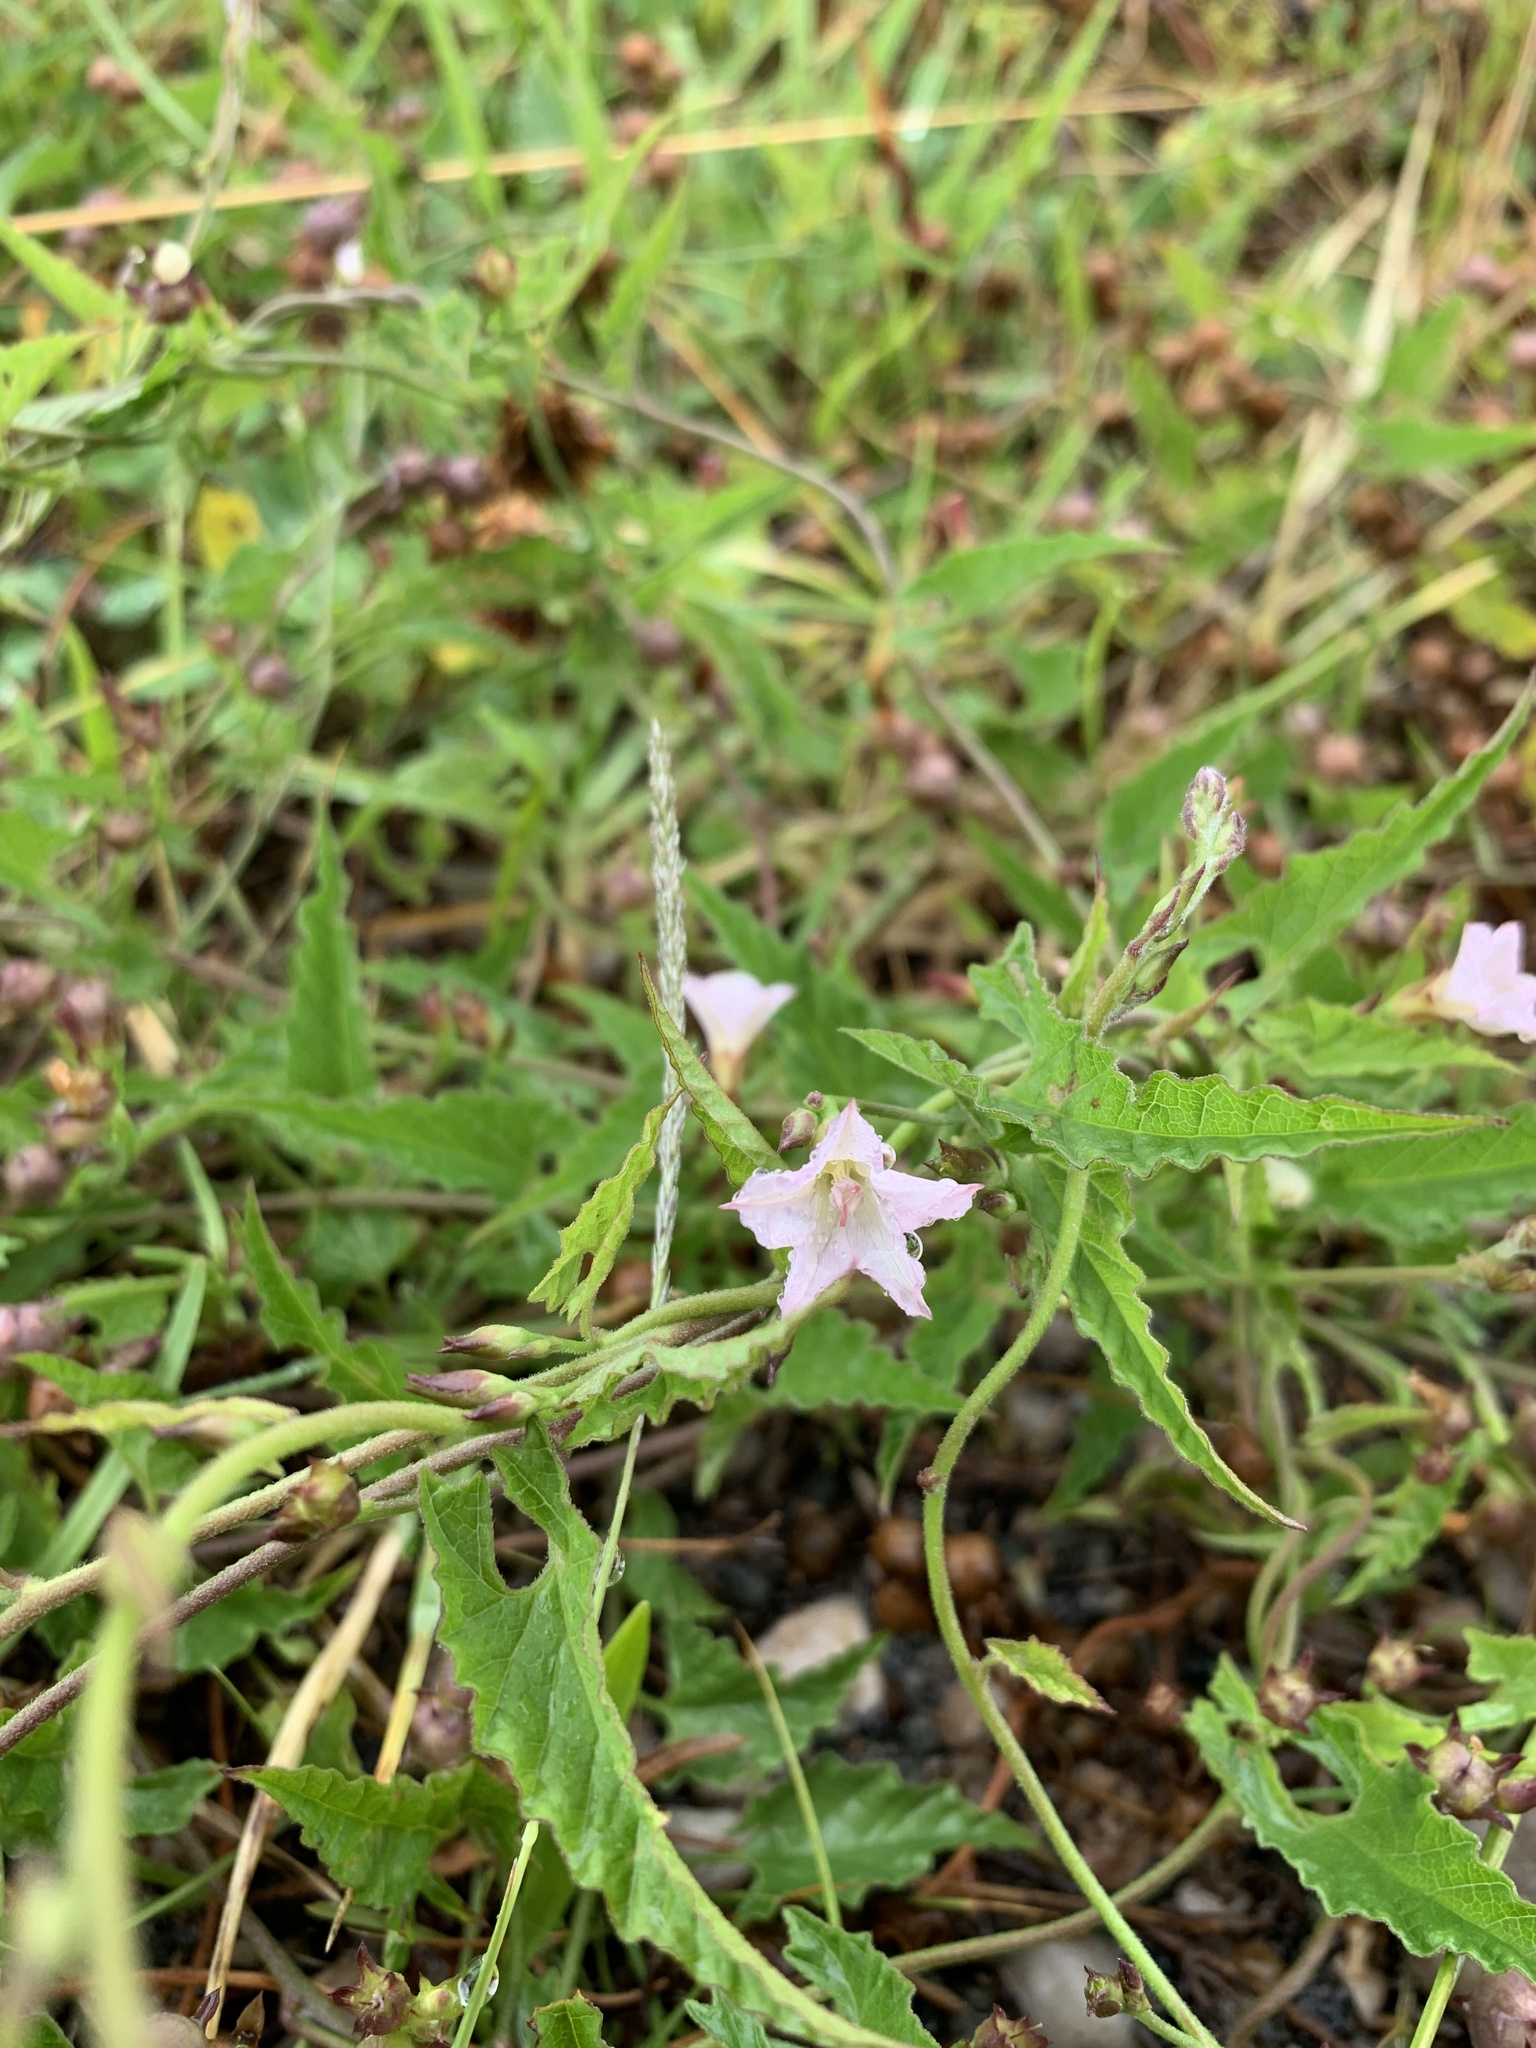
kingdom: Plantae
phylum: Tracheophyta
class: Magnoliopsida
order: Solanales
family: Convolvulaceae
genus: Convolvulus
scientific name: Convolvulus farinosus
